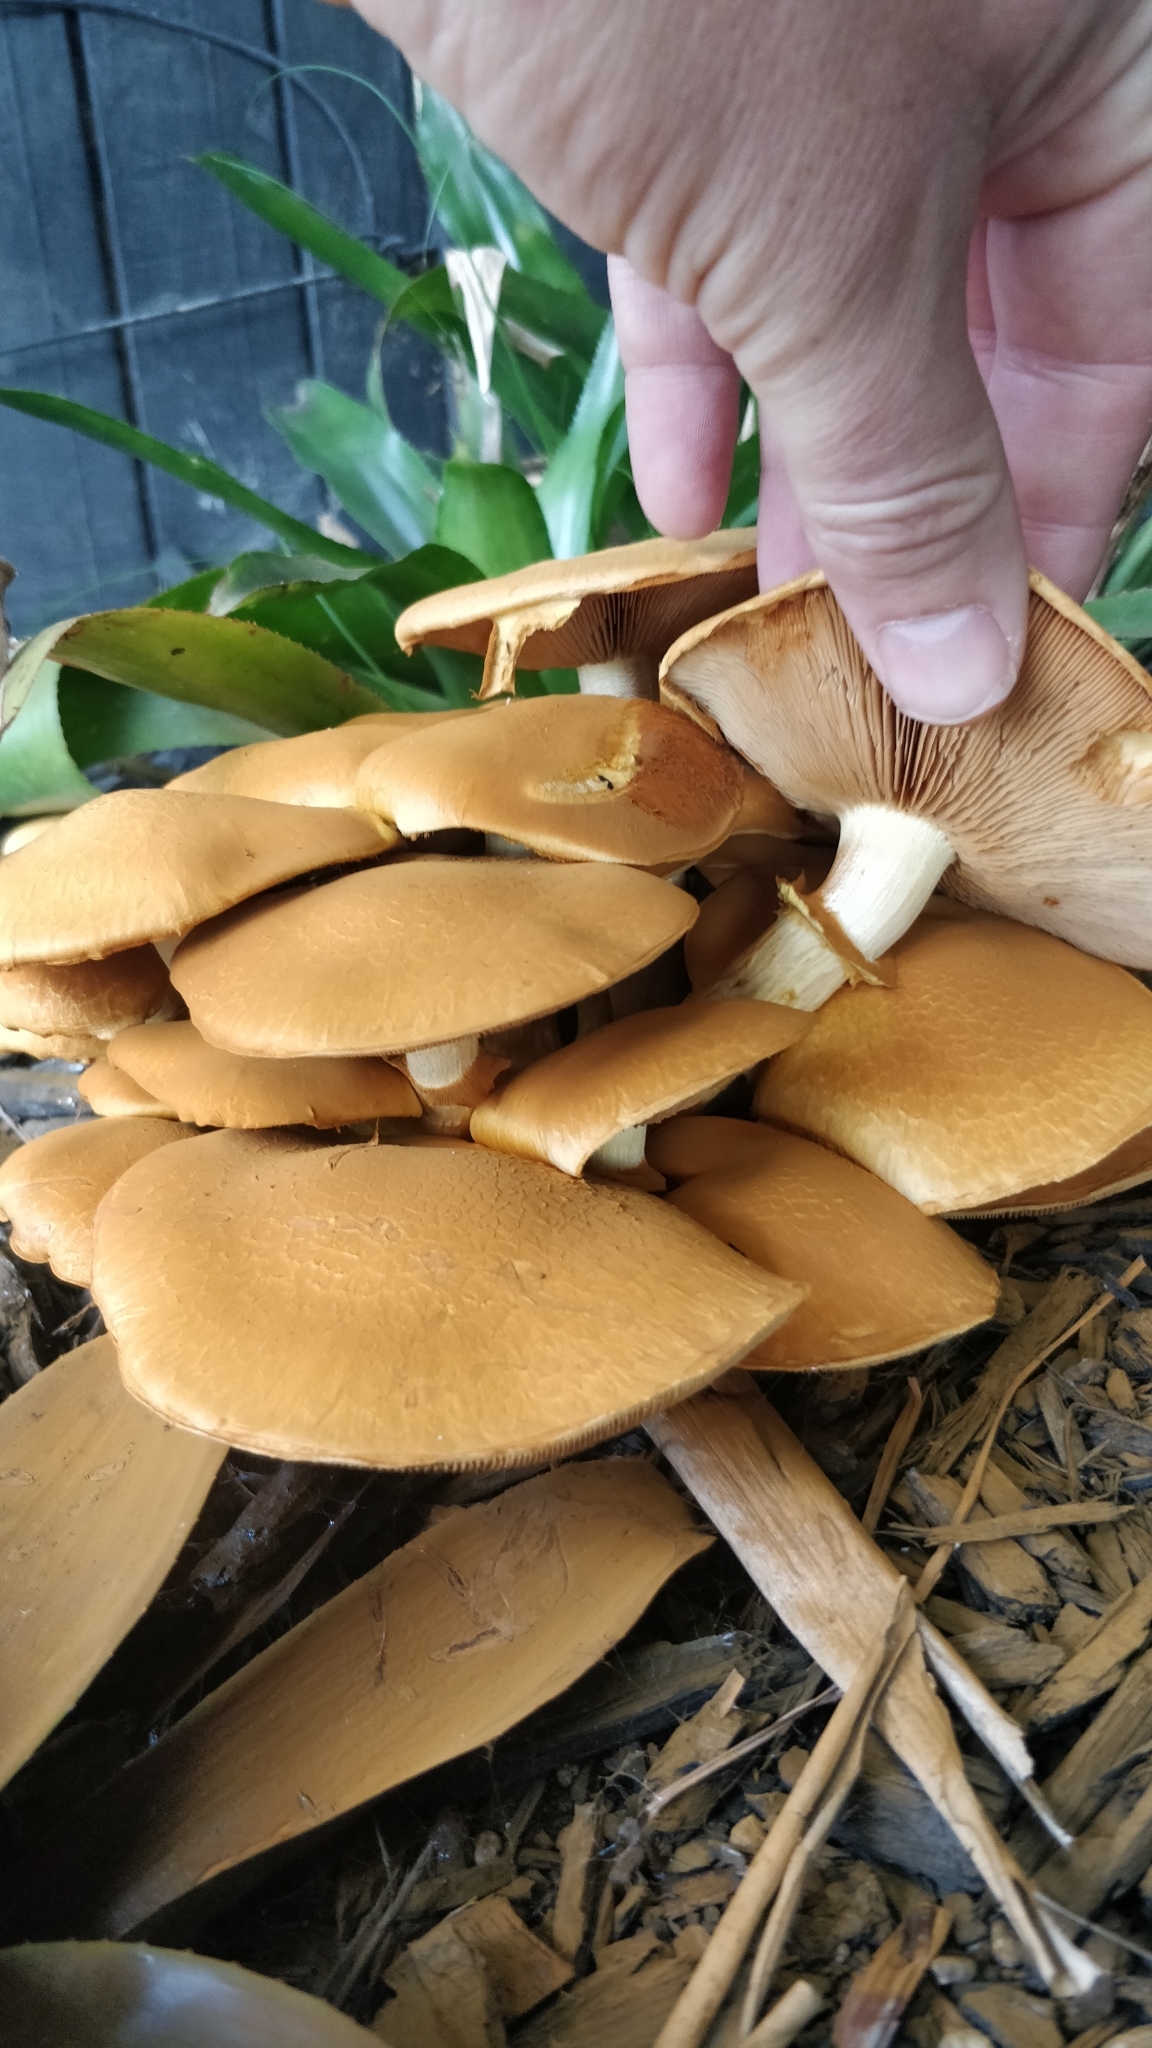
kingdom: Fungi
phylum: Basidiomycota
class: Agaricomycetes
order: Agaricales
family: Hymenogastraceae
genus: Gymnopilus
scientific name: Gymnopilus junonius
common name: Spectacular rustgill
